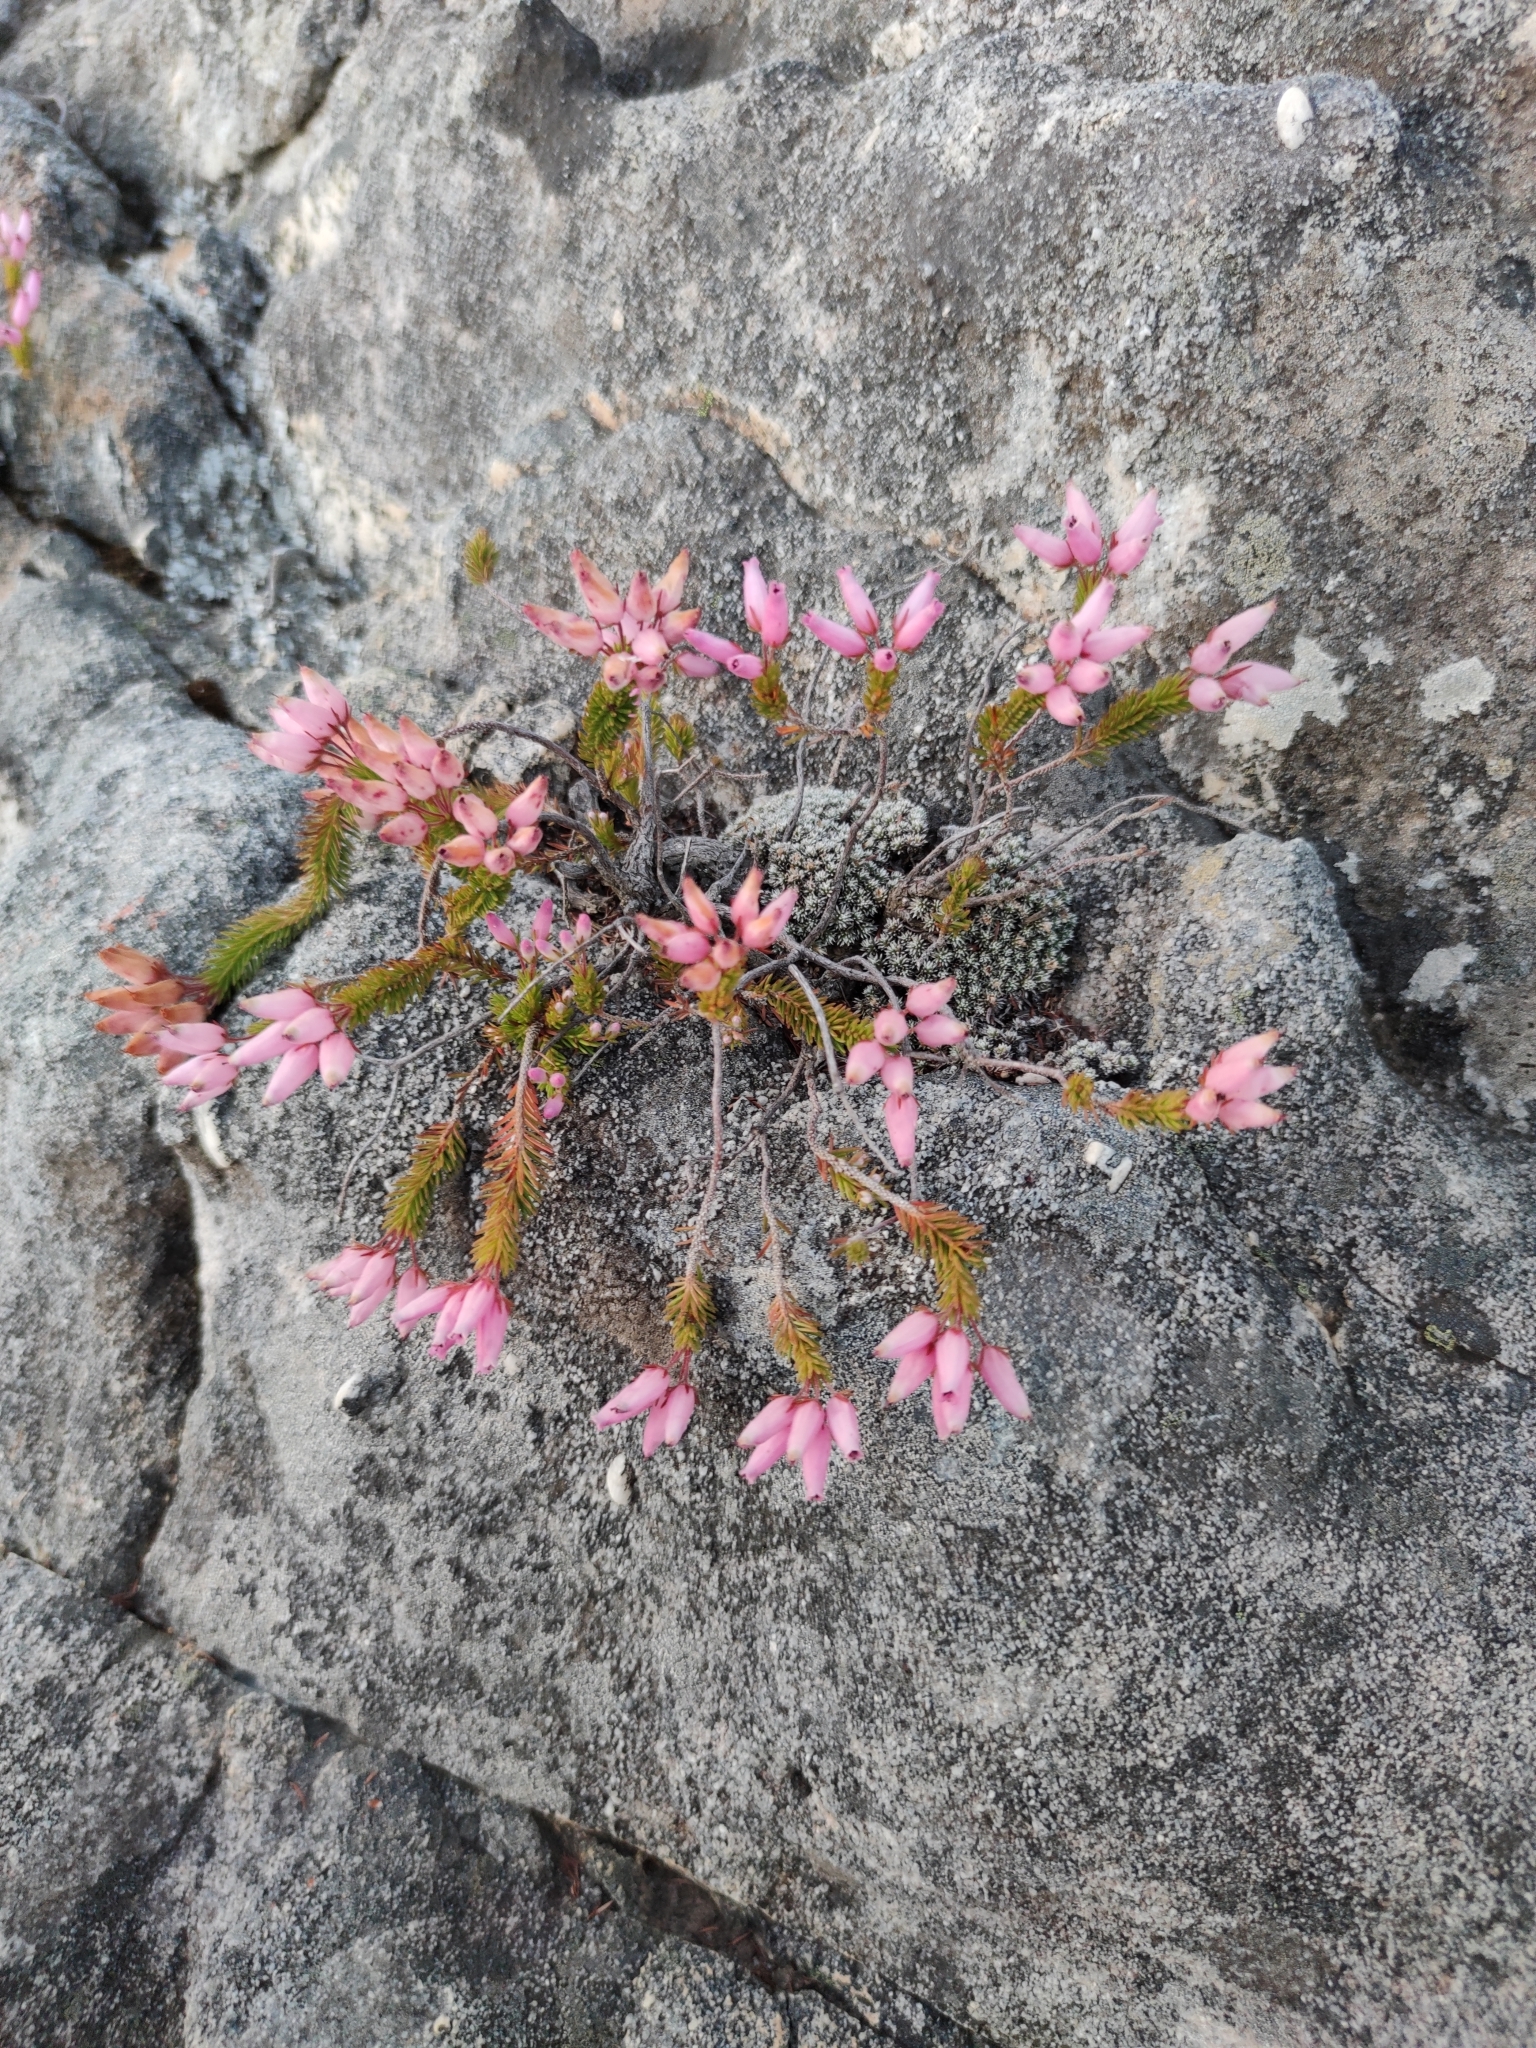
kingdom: Plantae
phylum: Tracheophyta
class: Magnoliopsida
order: Ericales
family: Ericaceae
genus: Erica
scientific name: Erica doliiformis
